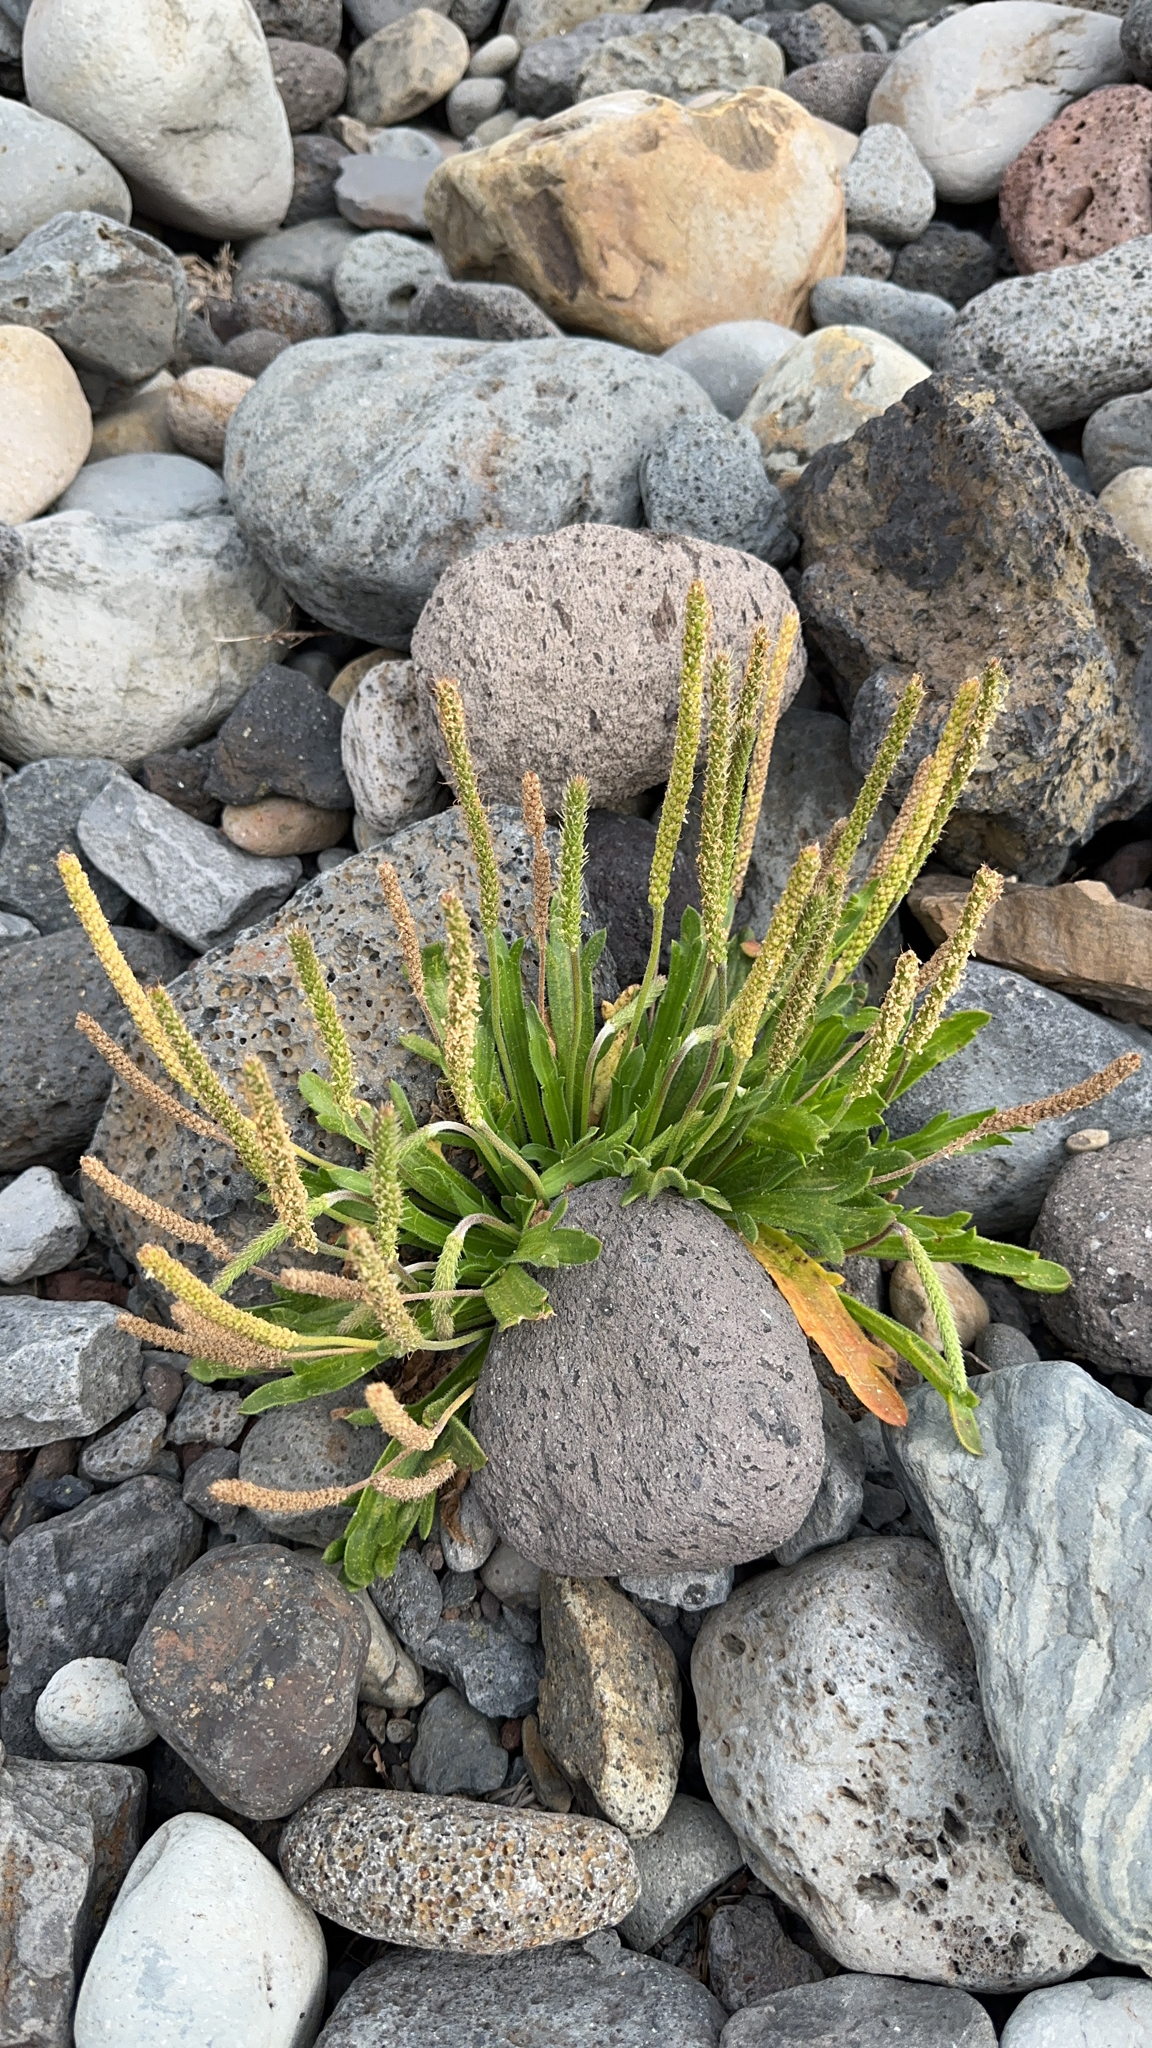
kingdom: Plantae
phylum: Tracheophyta
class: Magnoliopsida
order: Lamiales
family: Plantaginaceae
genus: Plantago
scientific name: Plantago coronopus
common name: Buck's-horn plantain
